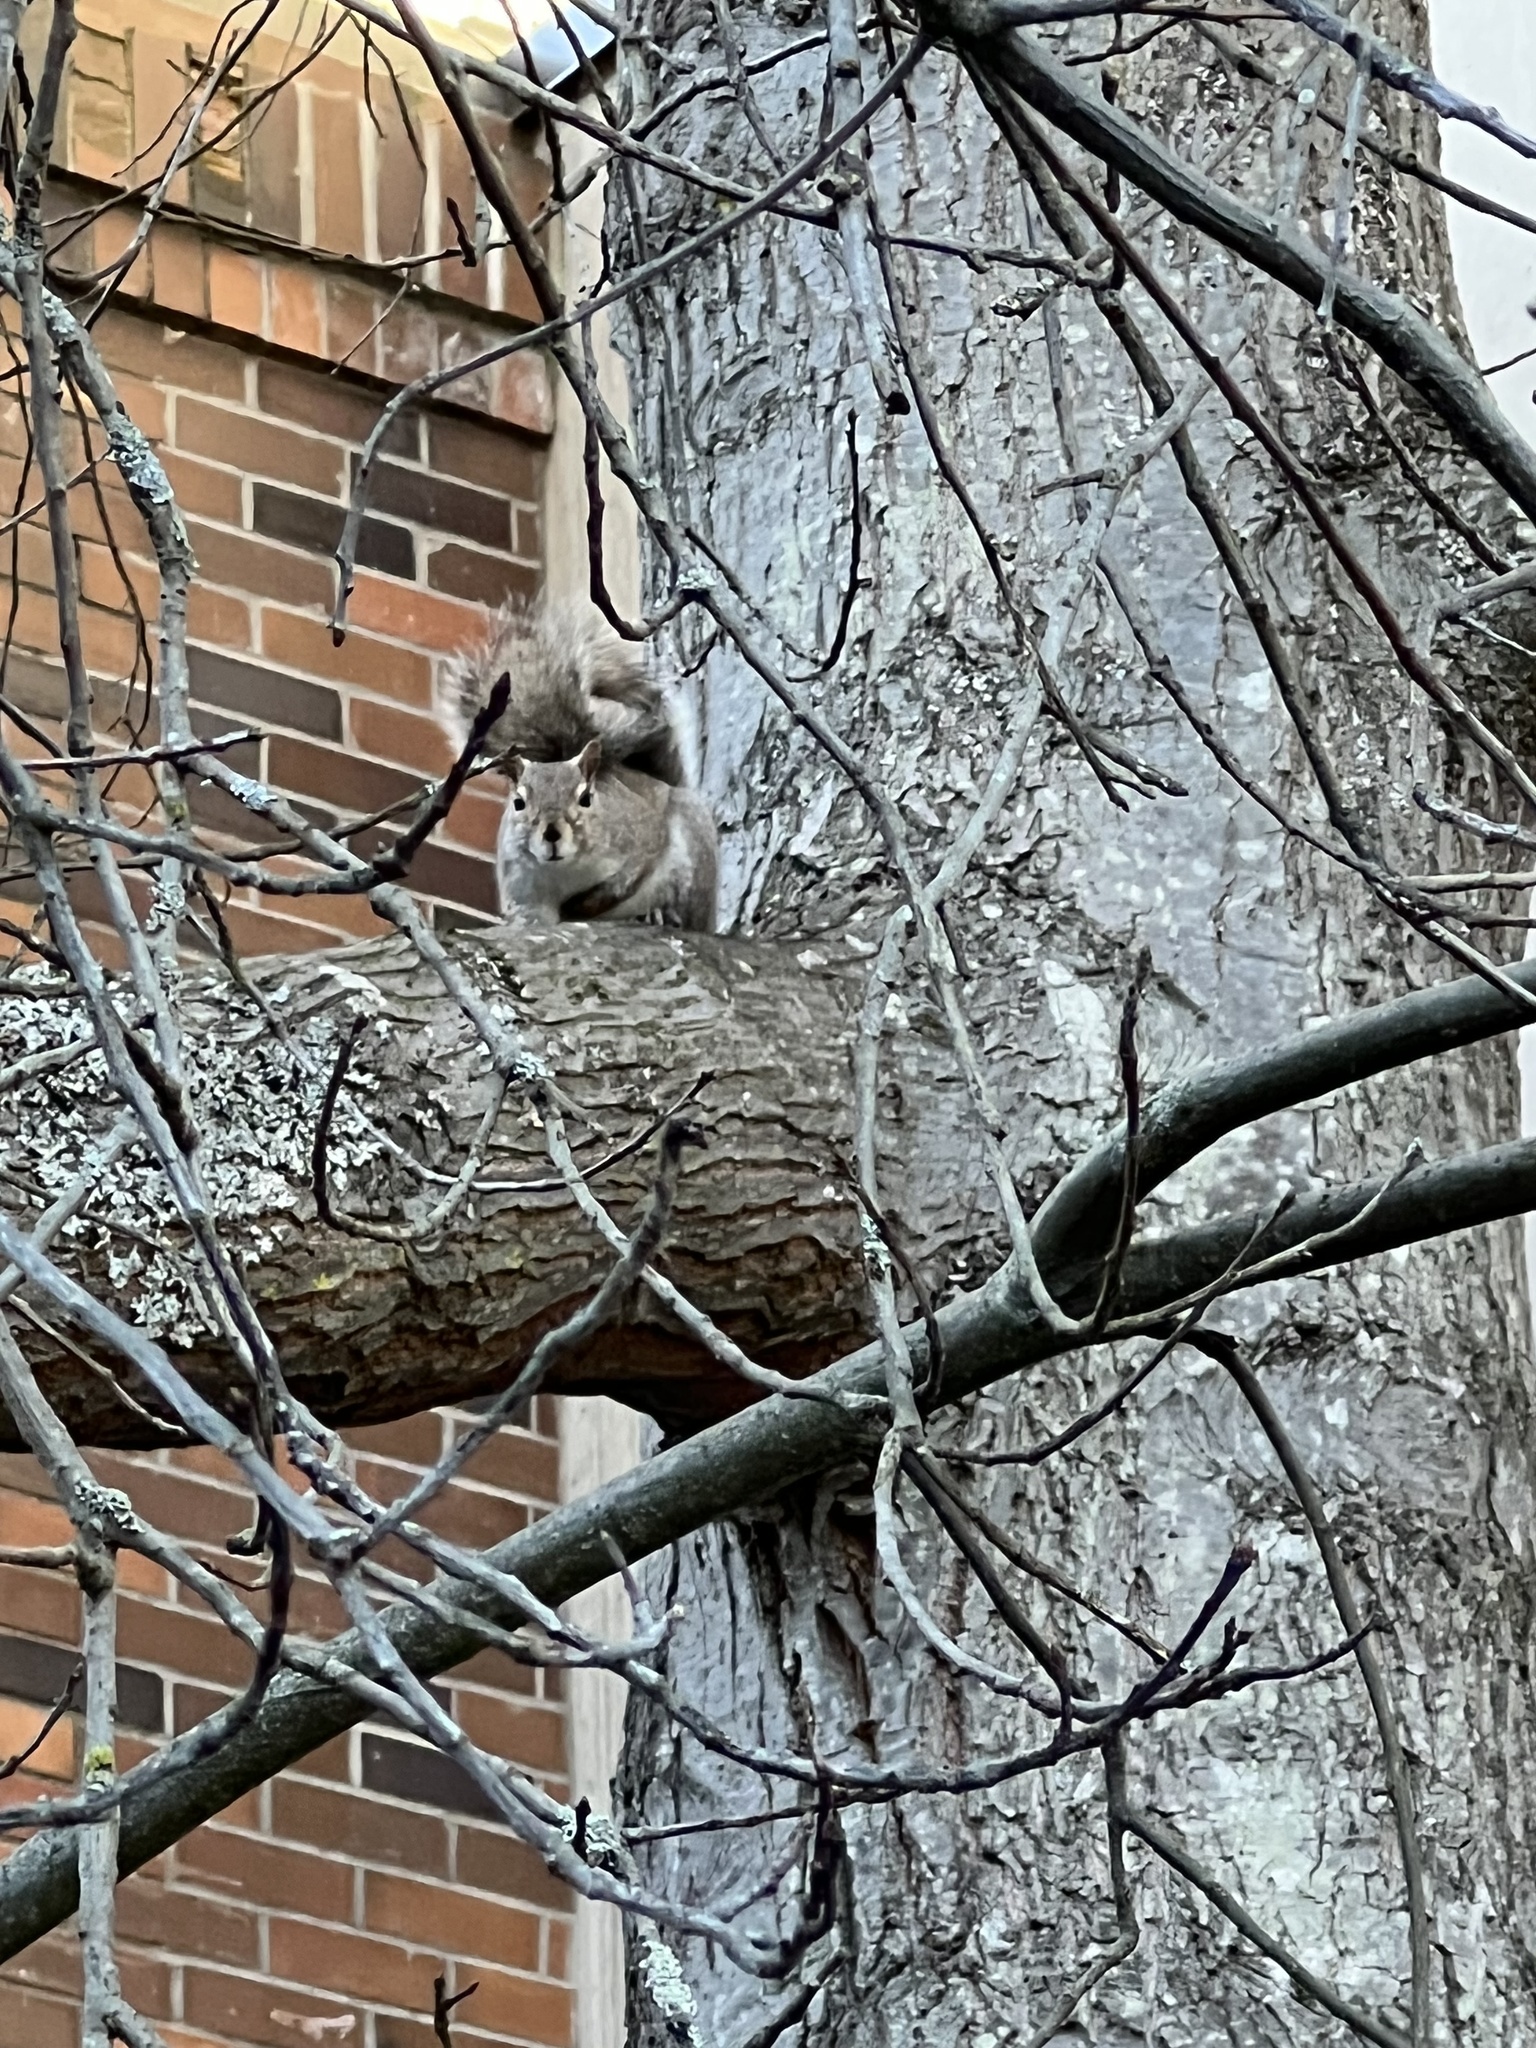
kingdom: Animalia
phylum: Chordata
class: Mammalia
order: Rodentia
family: Sciuridae
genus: Sciurus
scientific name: Sciurus carolinensis
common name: Eastern gray squirrel
